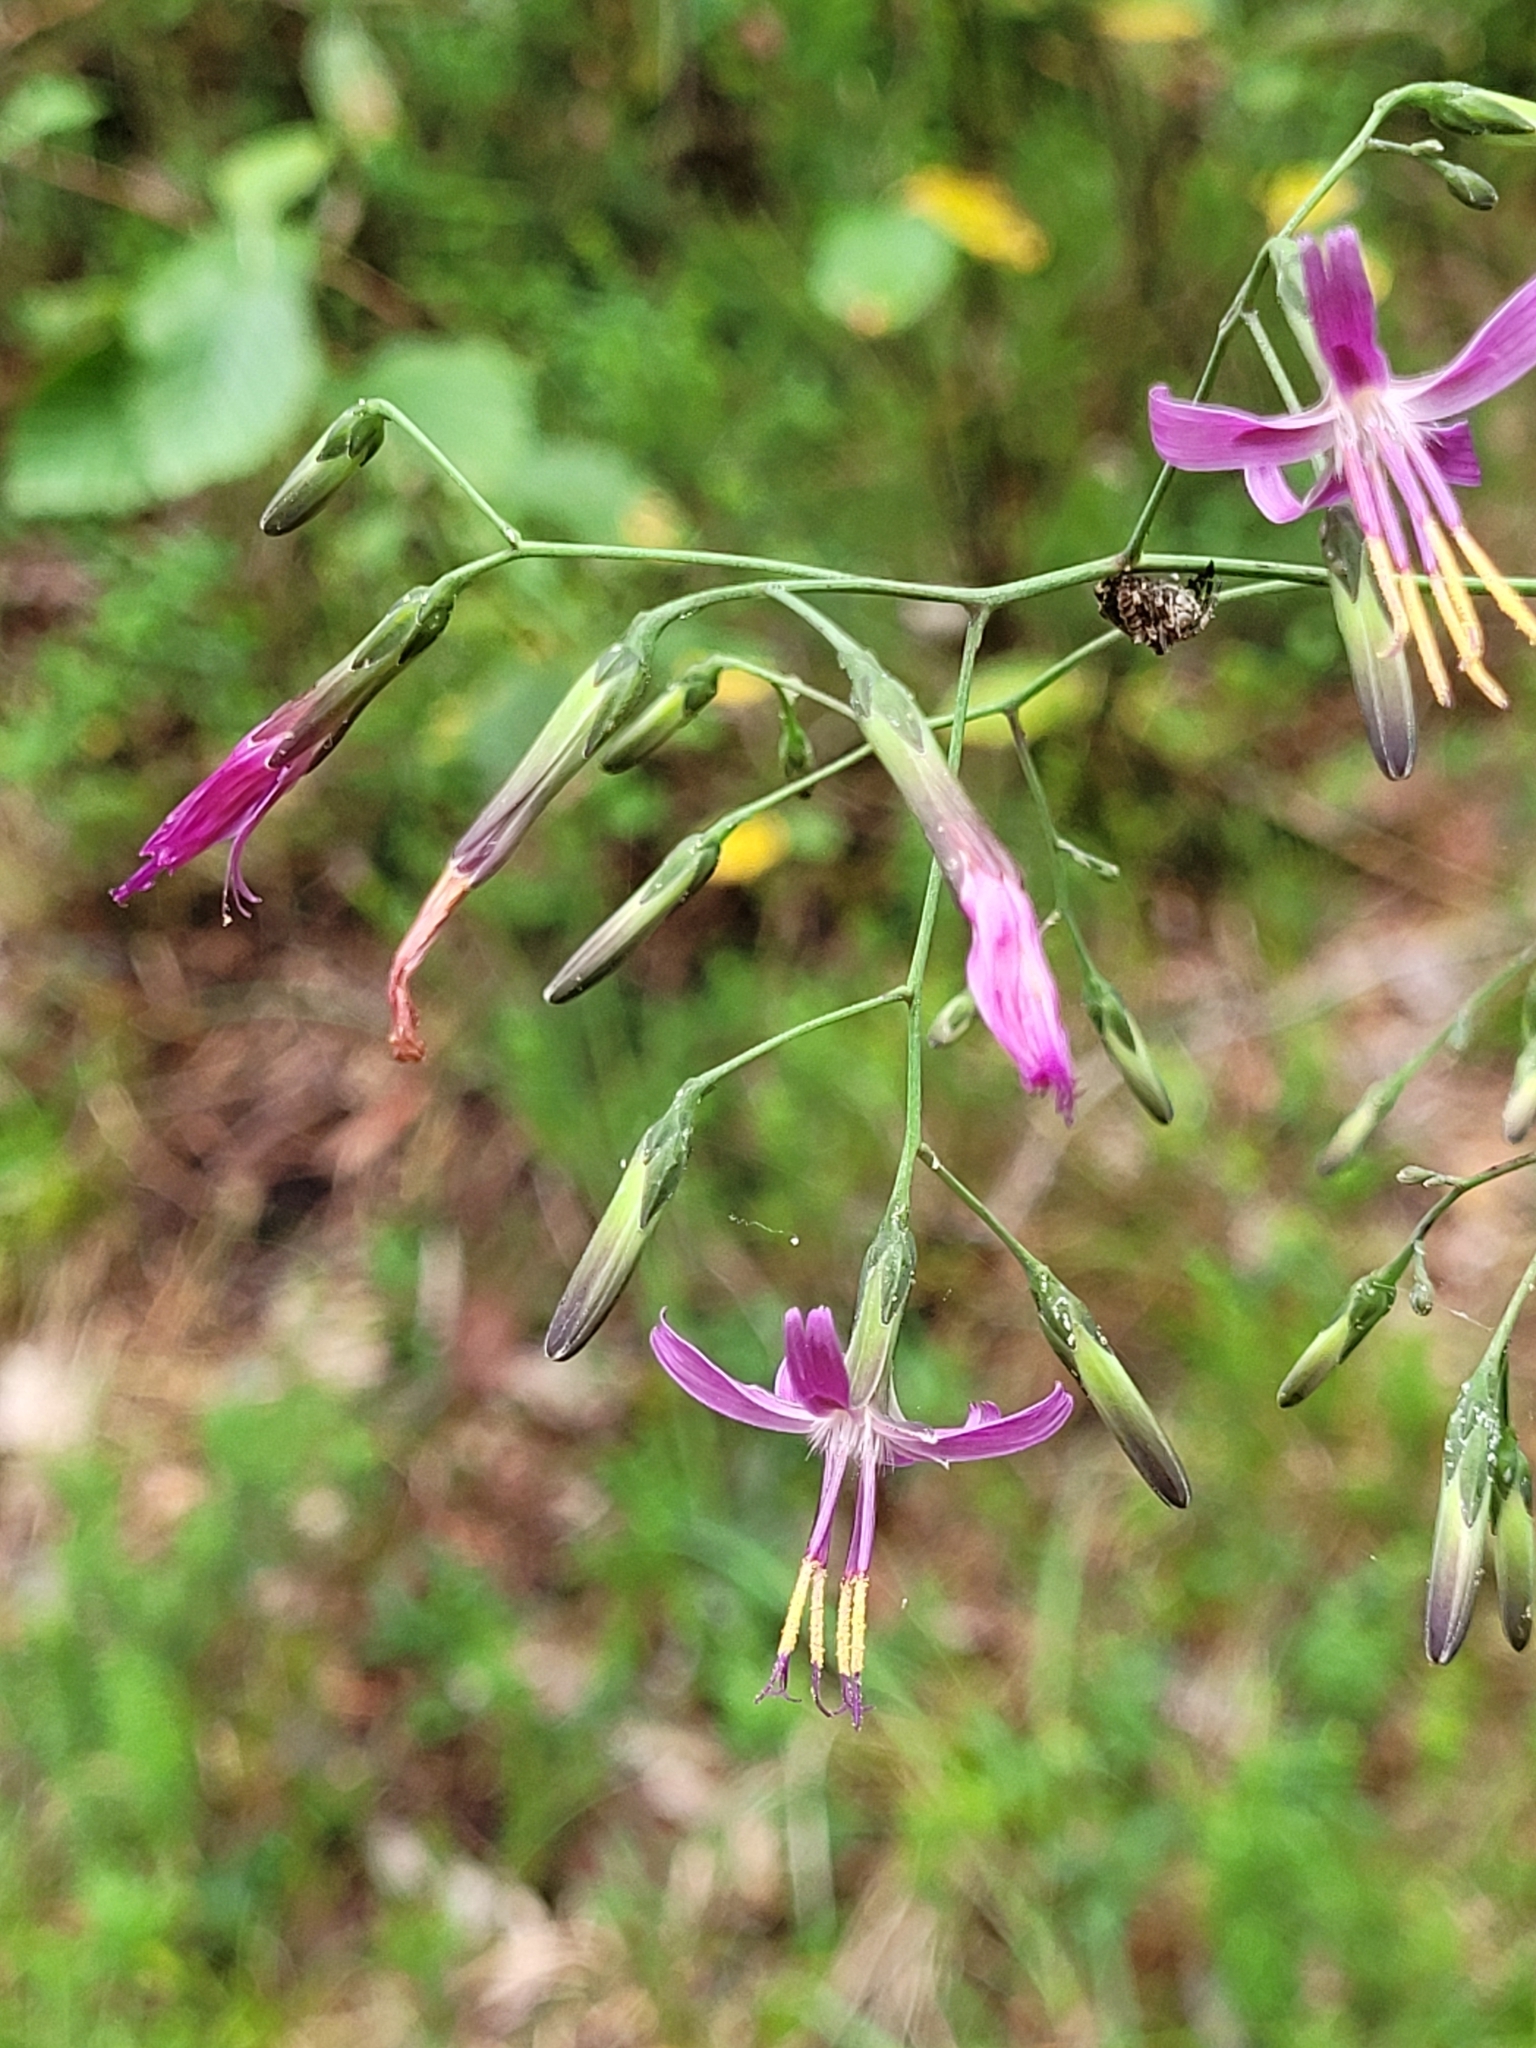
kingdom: Plantae
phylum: Tracheophyta
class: Magnoliopsida
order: Asterales
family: Asteraceae
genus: Prenanthes
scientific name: Prenanthes purpurea
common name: Purple lettuce
